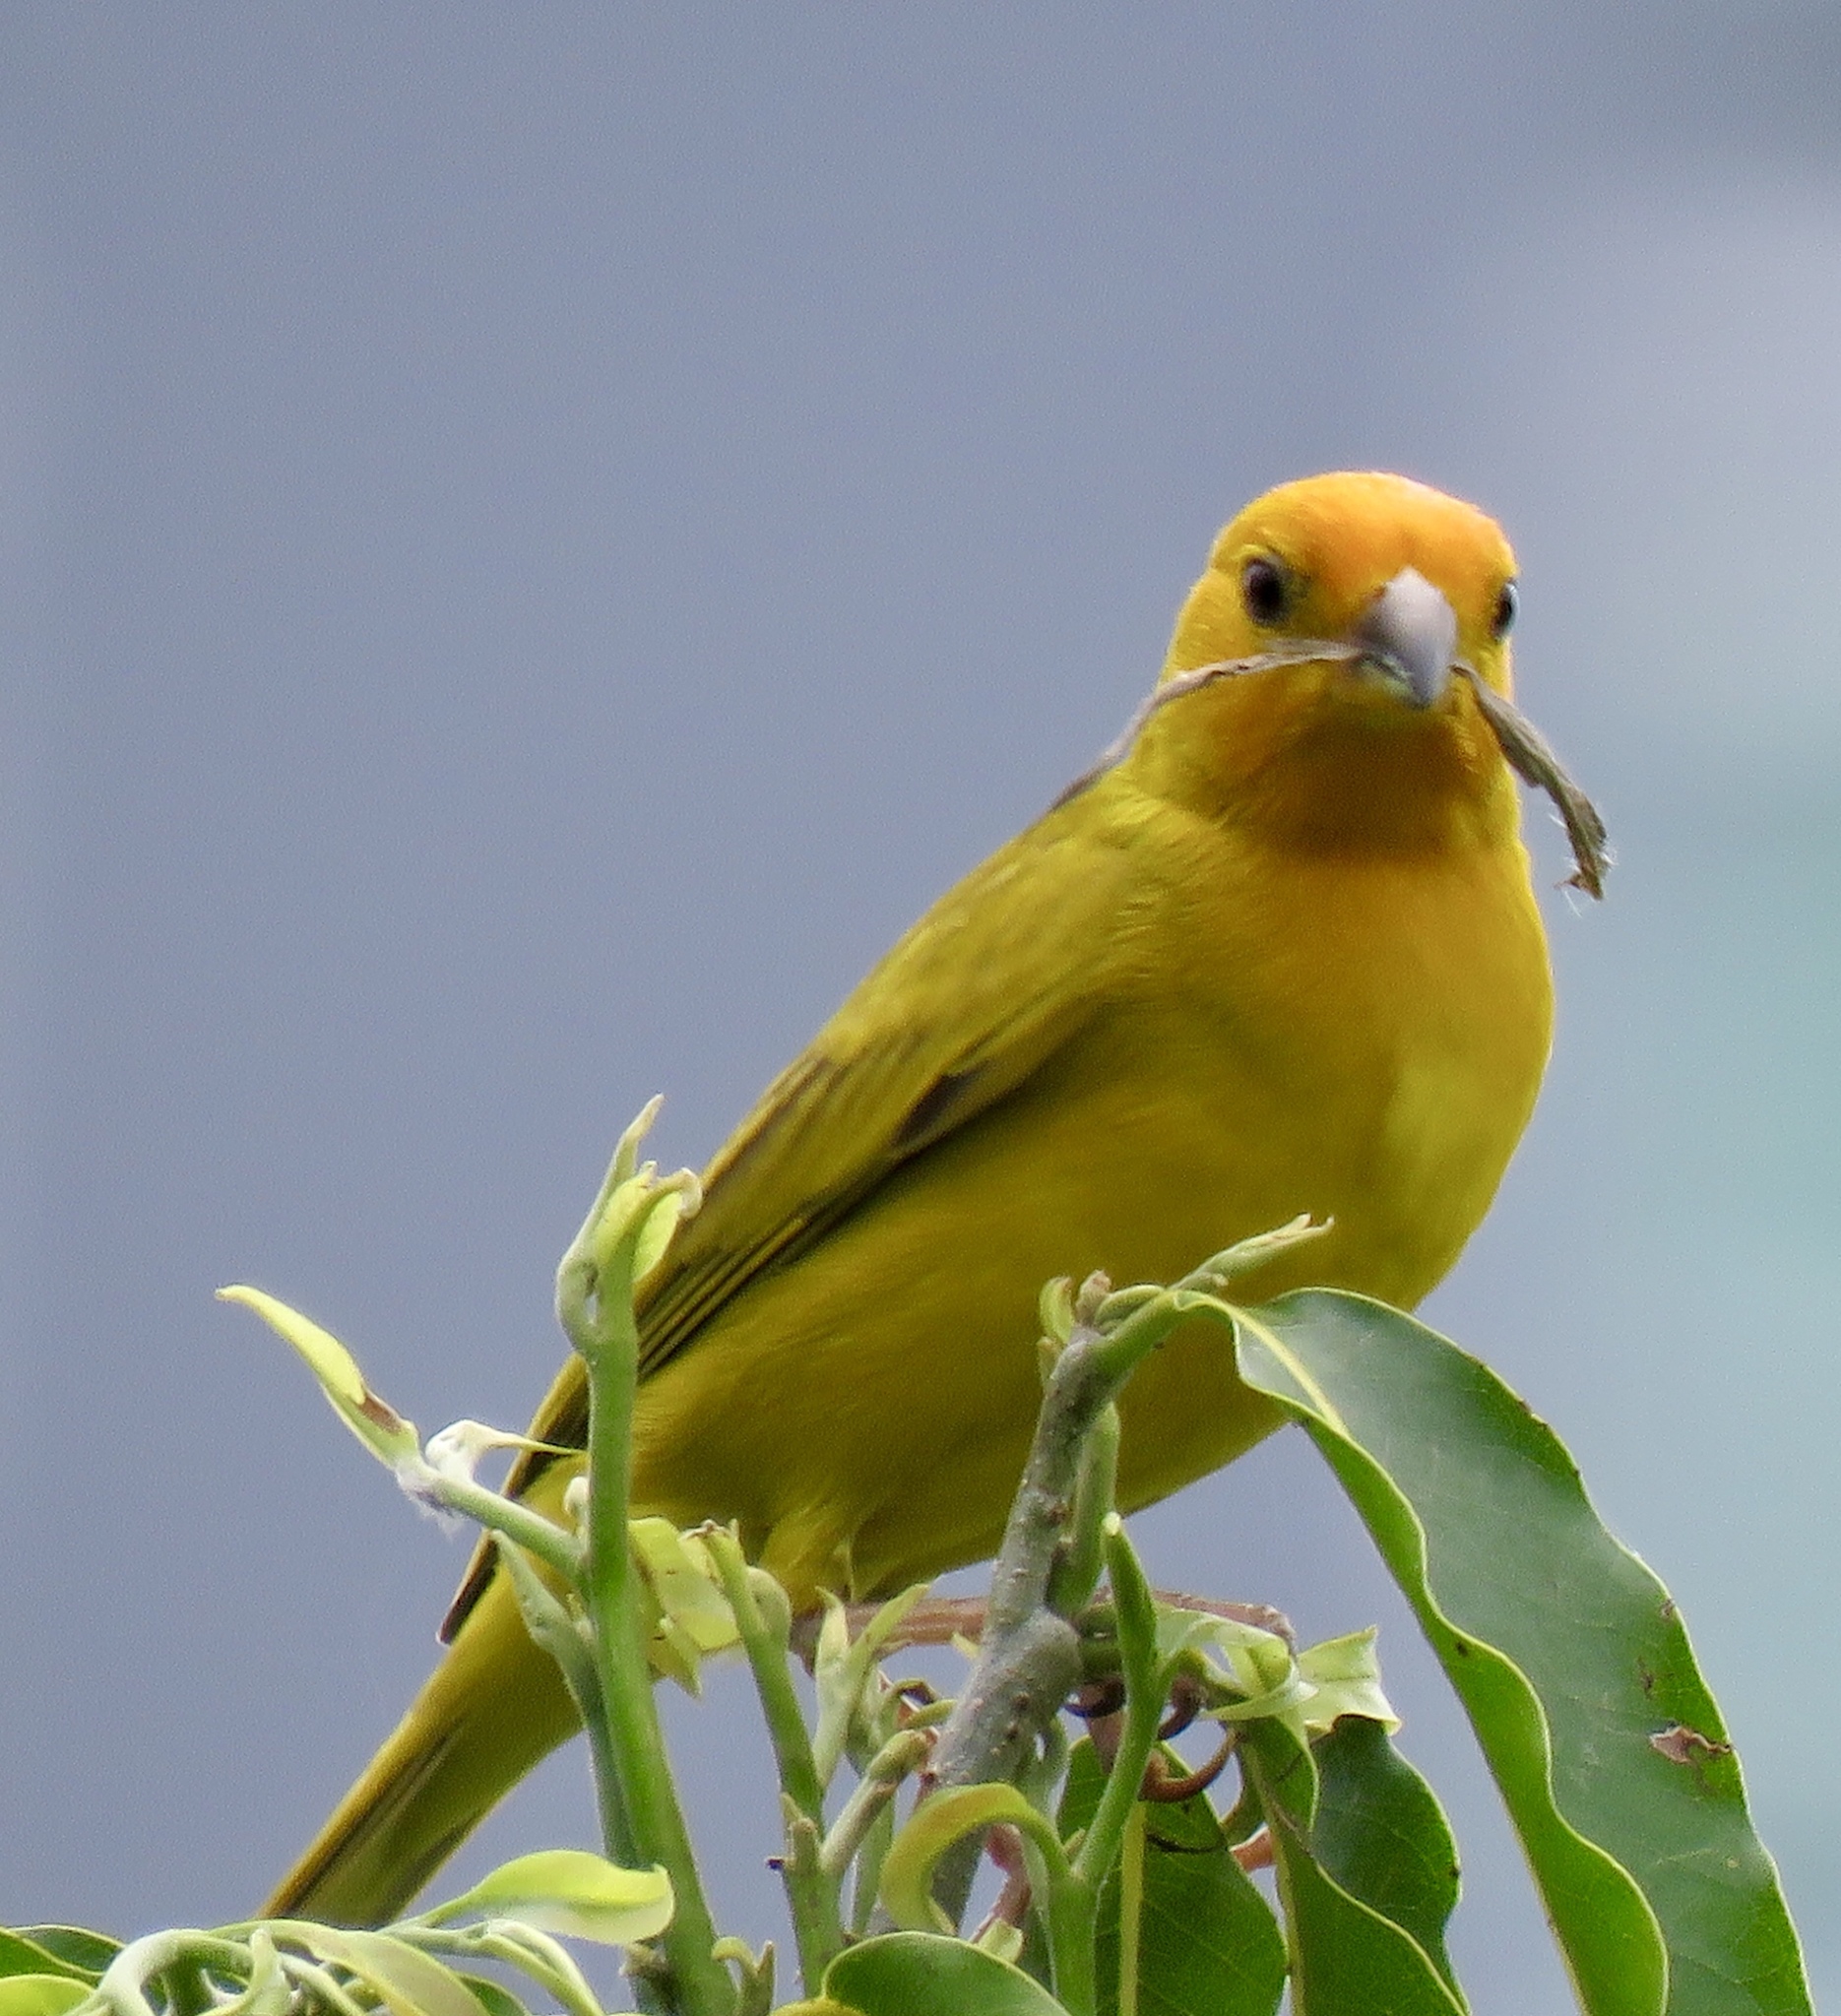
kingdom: Animalia
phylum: Chordata
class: Aves
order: Passeriformes
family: Thraupidae
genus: Sicalis
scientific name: Sicalis flaveola
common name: Saffron finch
